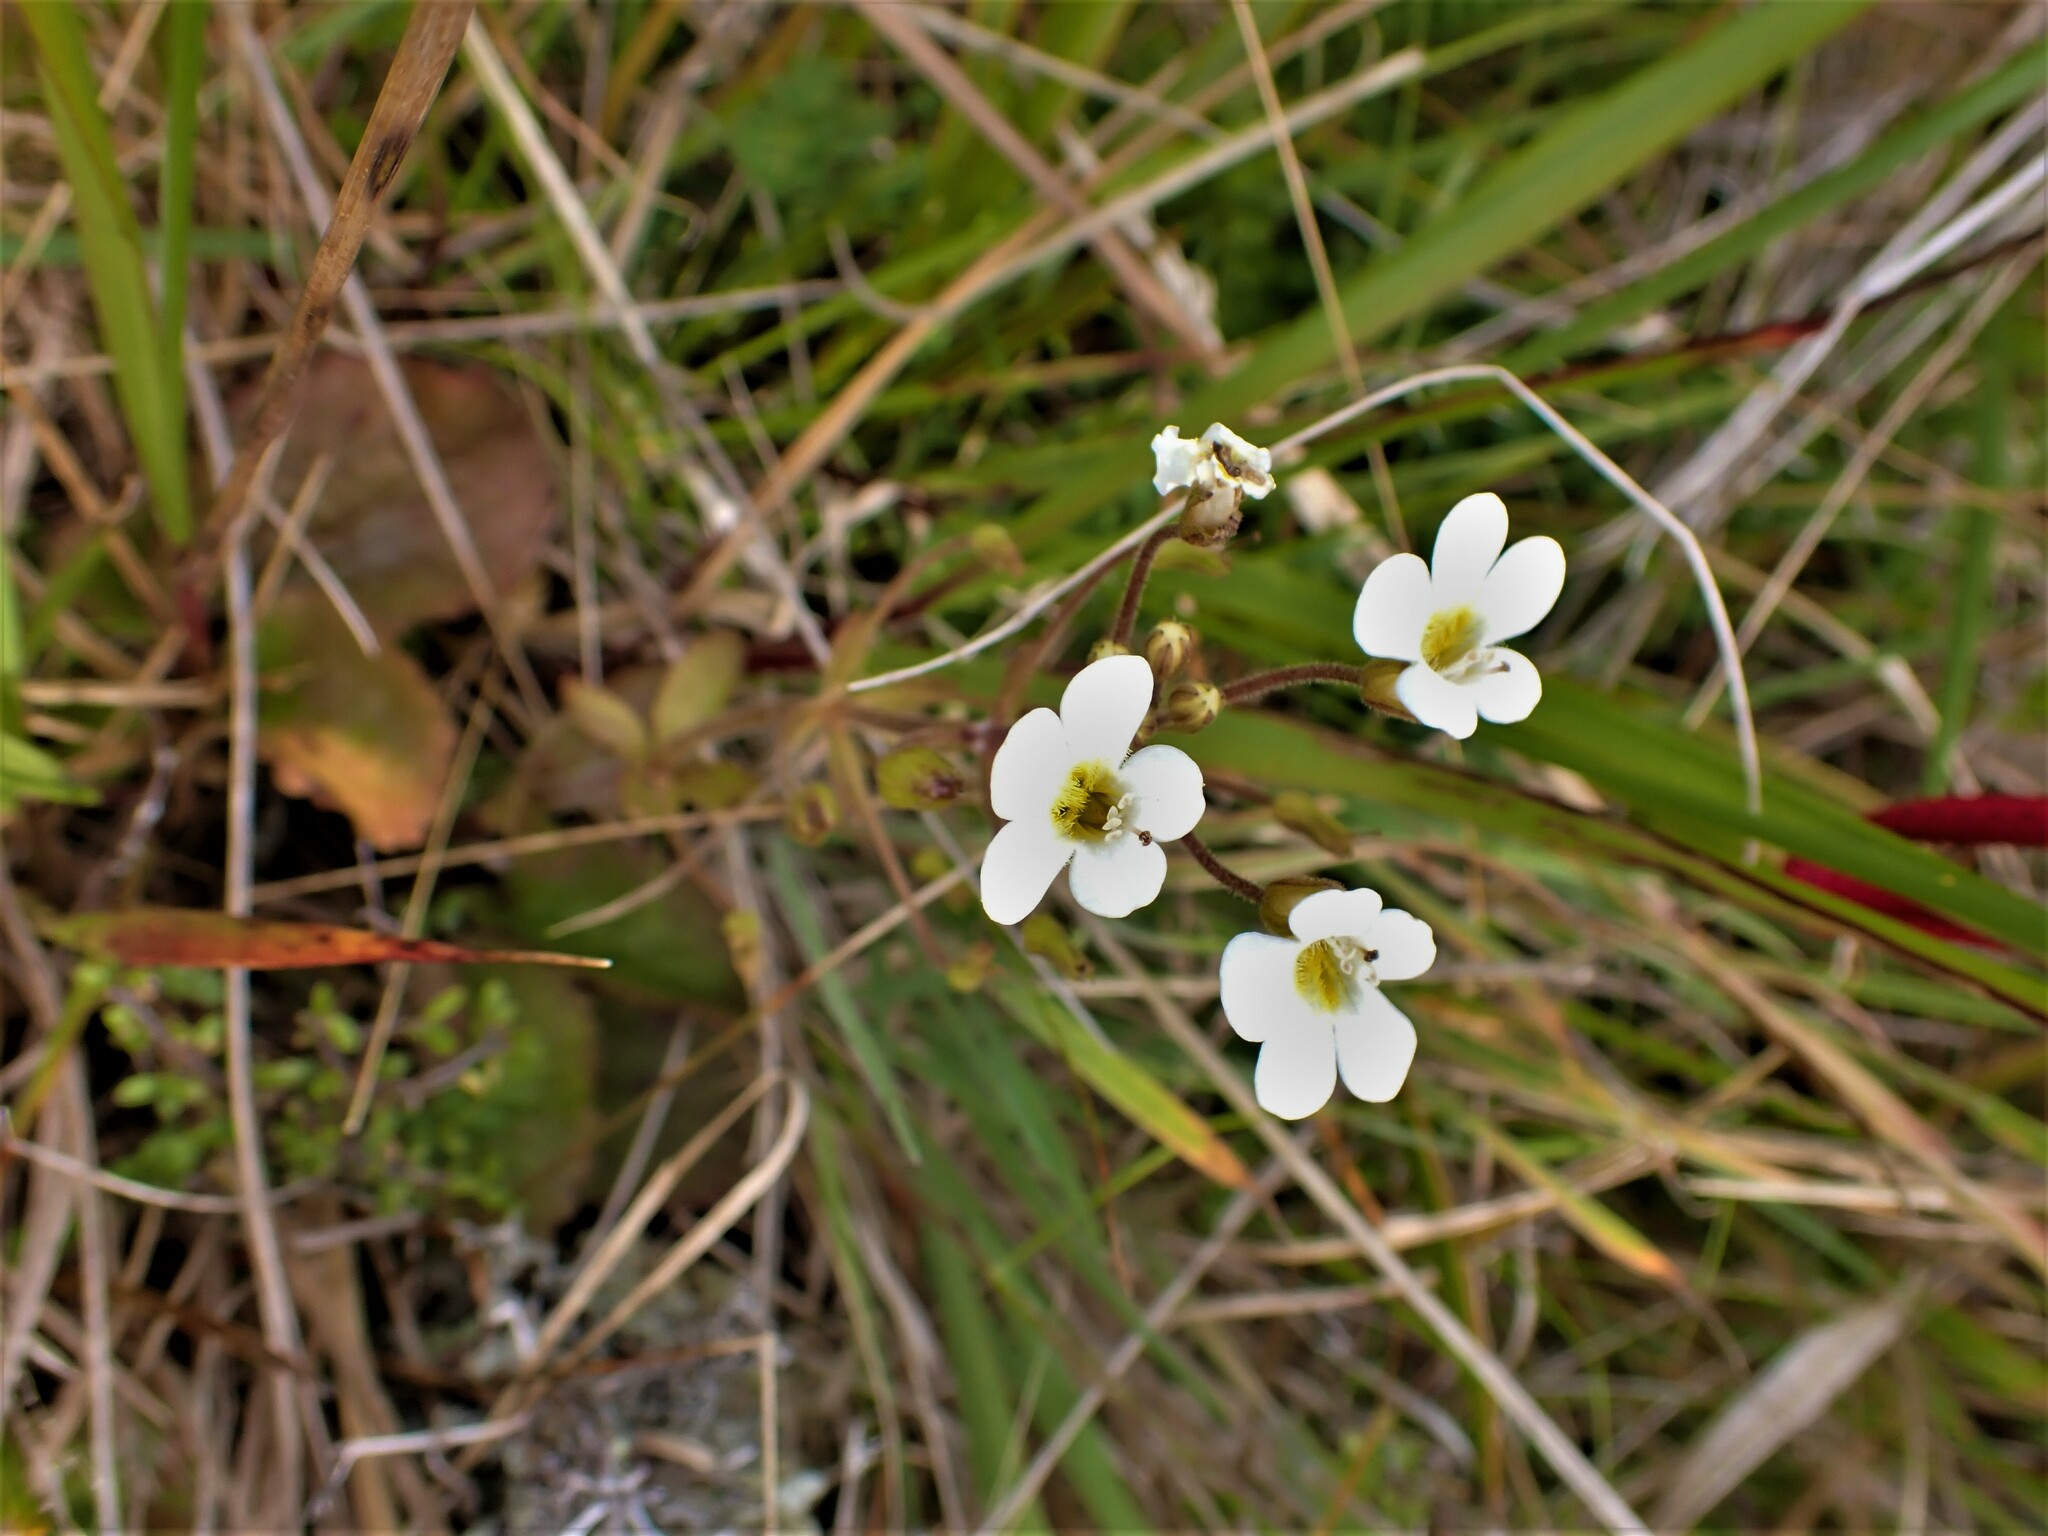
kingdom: Plantae
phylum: Tracheophyta
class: Magnoliopsida
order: Lamiales
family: Plantaginaceae
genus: Ourisia
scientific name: Ourisia macrophylla
